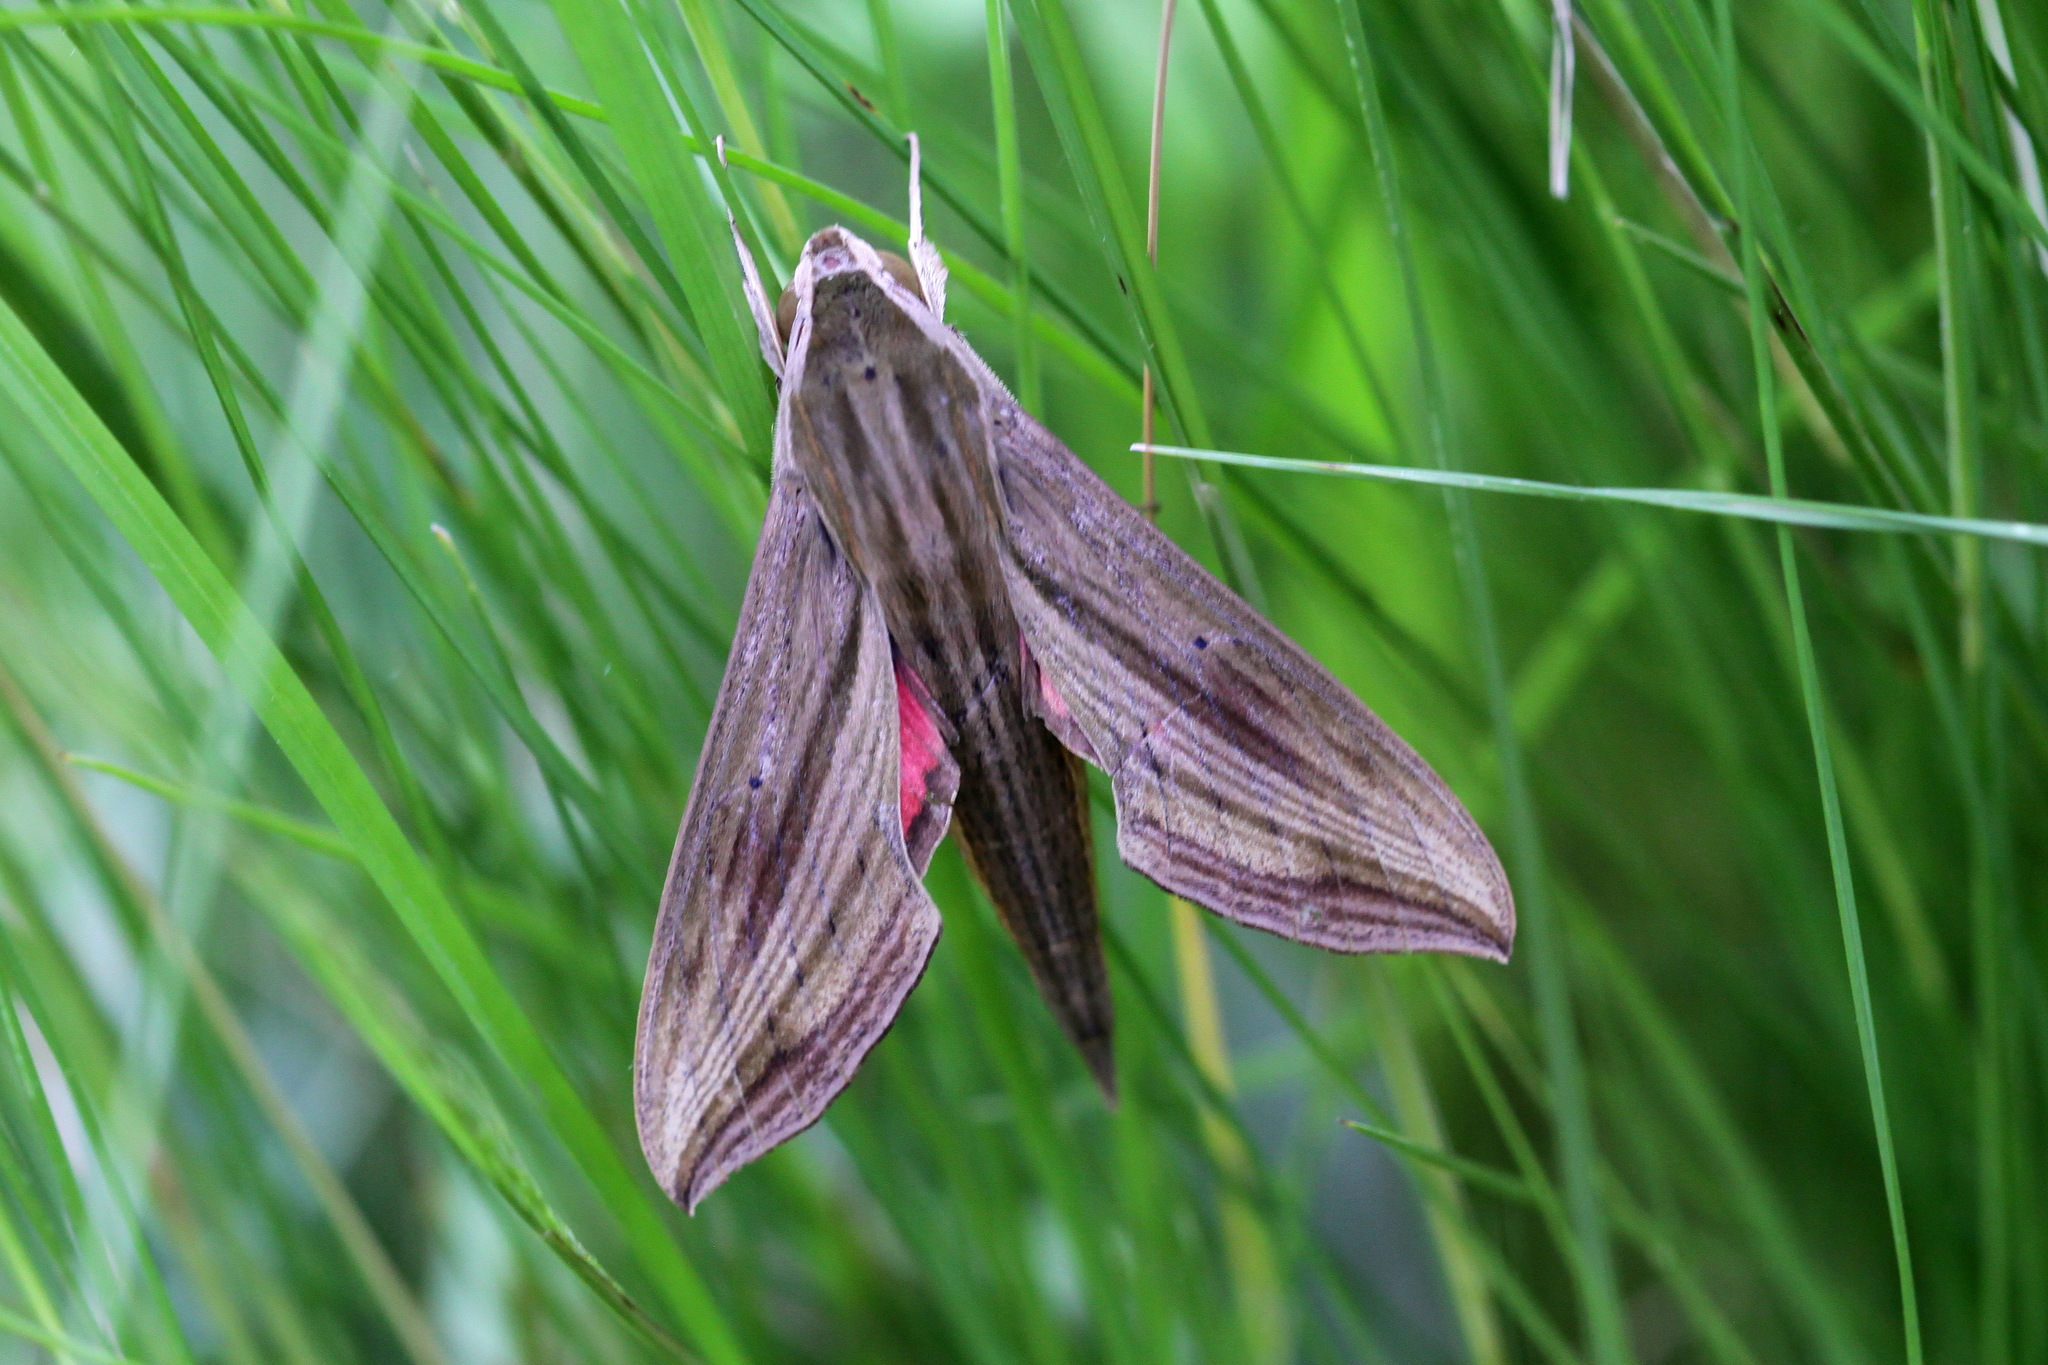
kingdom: Animalia
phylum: Arthropoda
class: Insecta
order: Lepidoptera
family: Sphingidae
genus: Hippotion
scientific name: Hippotion eson
